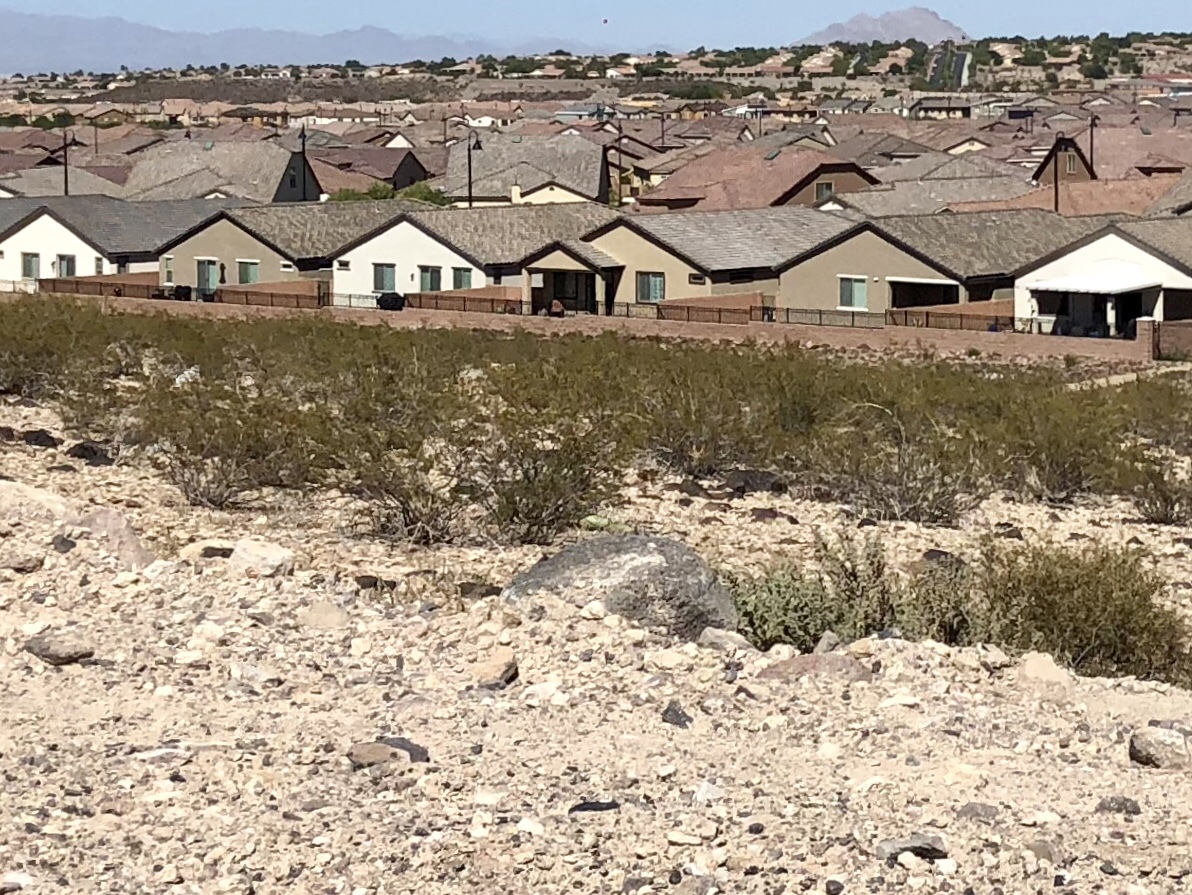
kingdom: Plantae
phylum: Tracheophyta
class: Magnoliopsida
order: Zygophyllales
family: Zygophyllaceae
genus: Larrea
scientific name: Larrea tridentata
